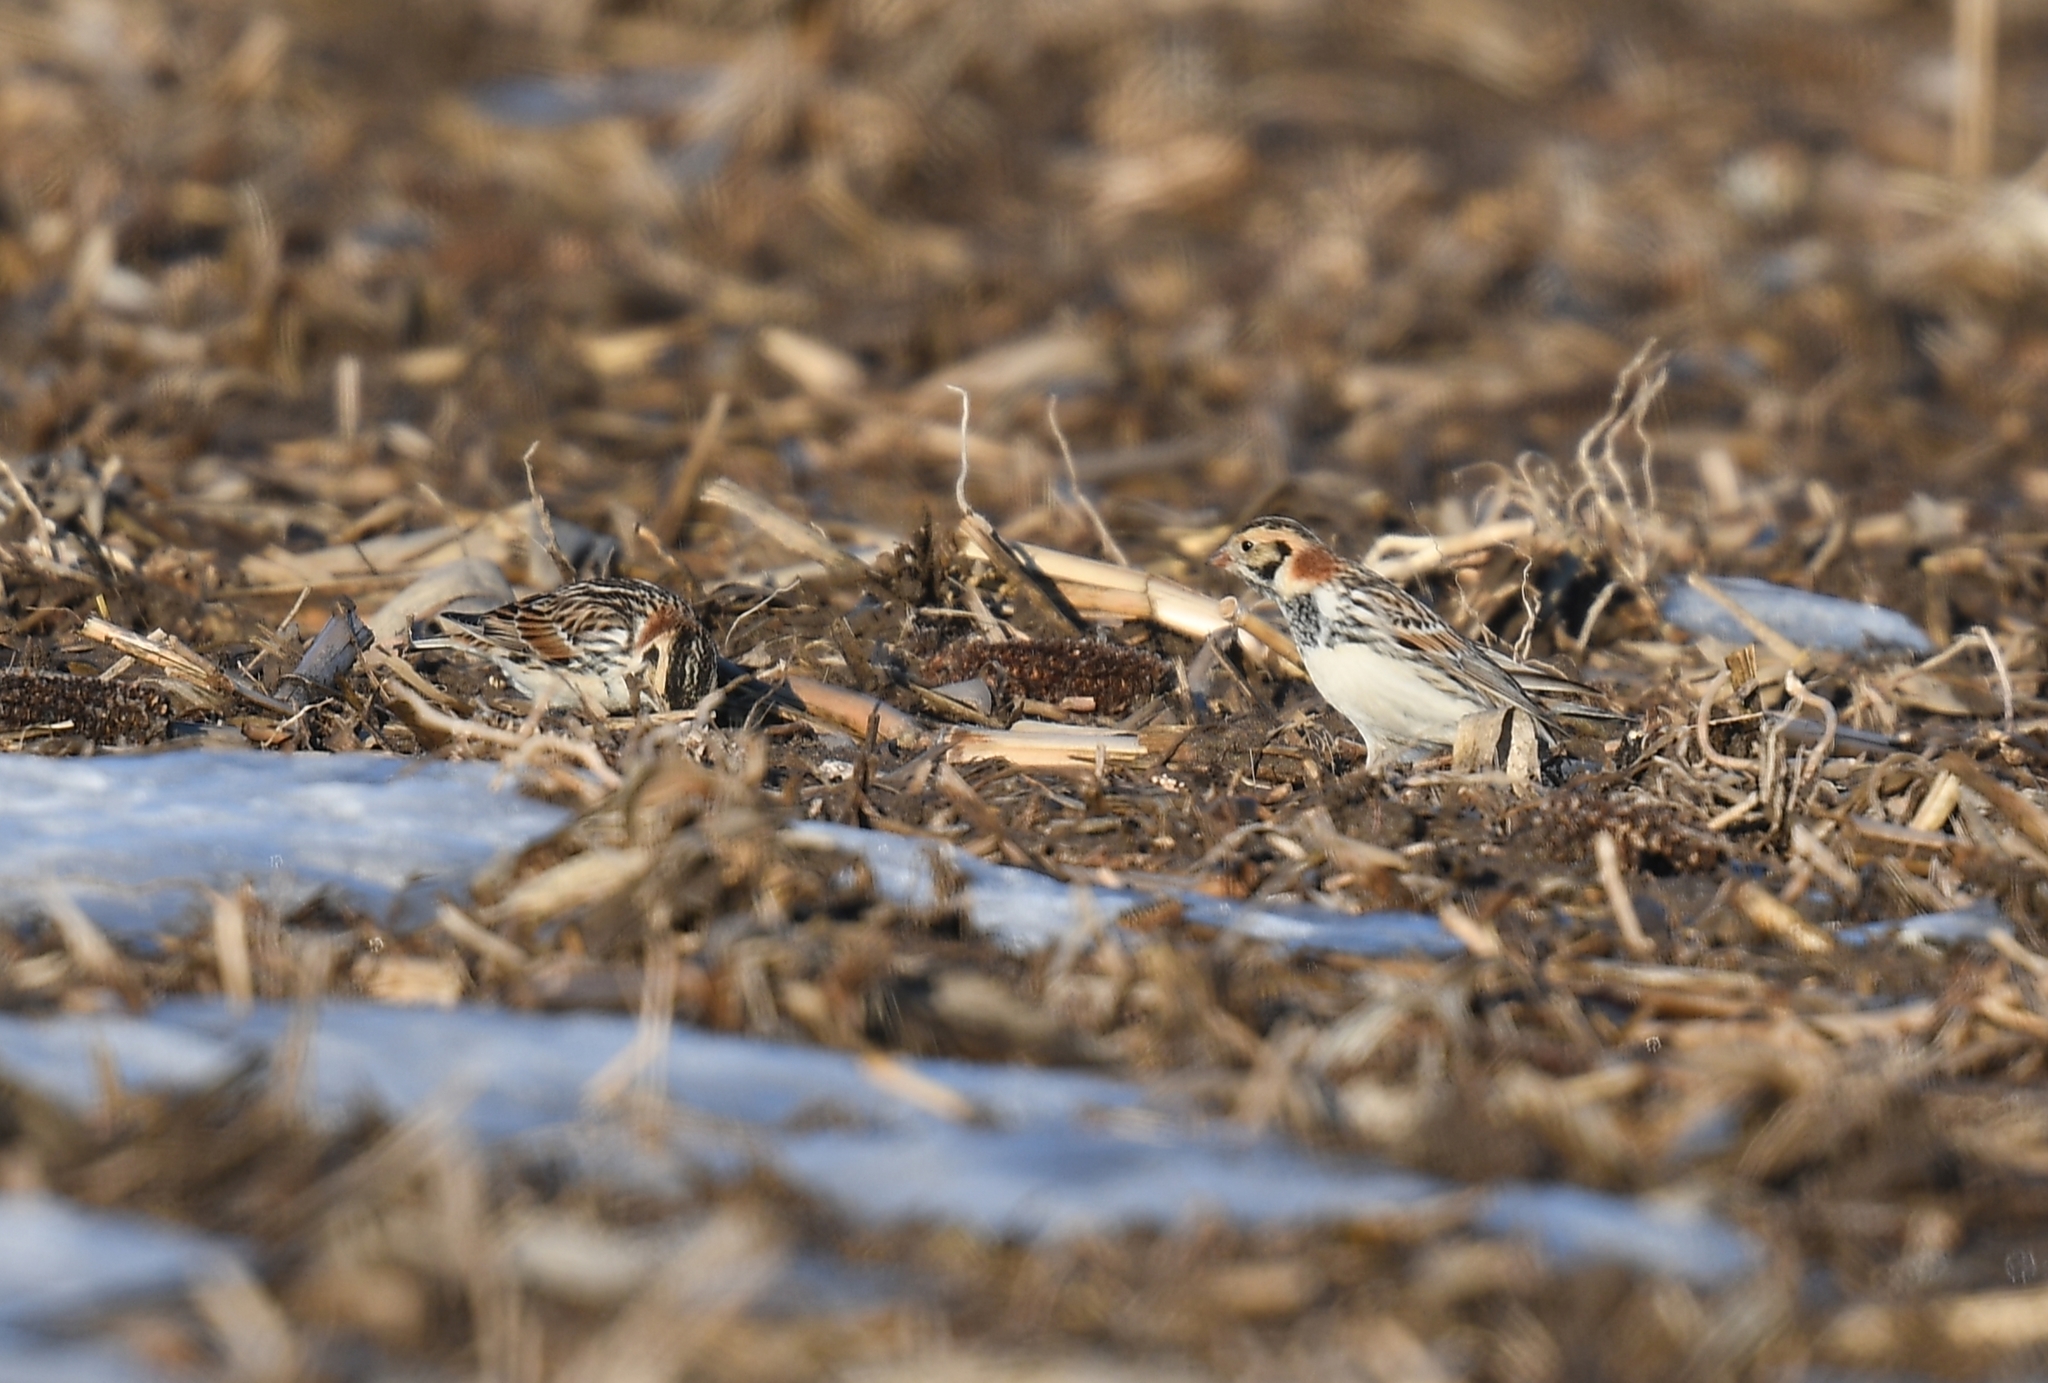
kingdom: Animalia
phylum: Chordata
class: Aves
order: Passeriformes
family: Calcariidae
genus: Calcarius
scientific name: Calcarius lapponicus
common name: Lapland longspur
